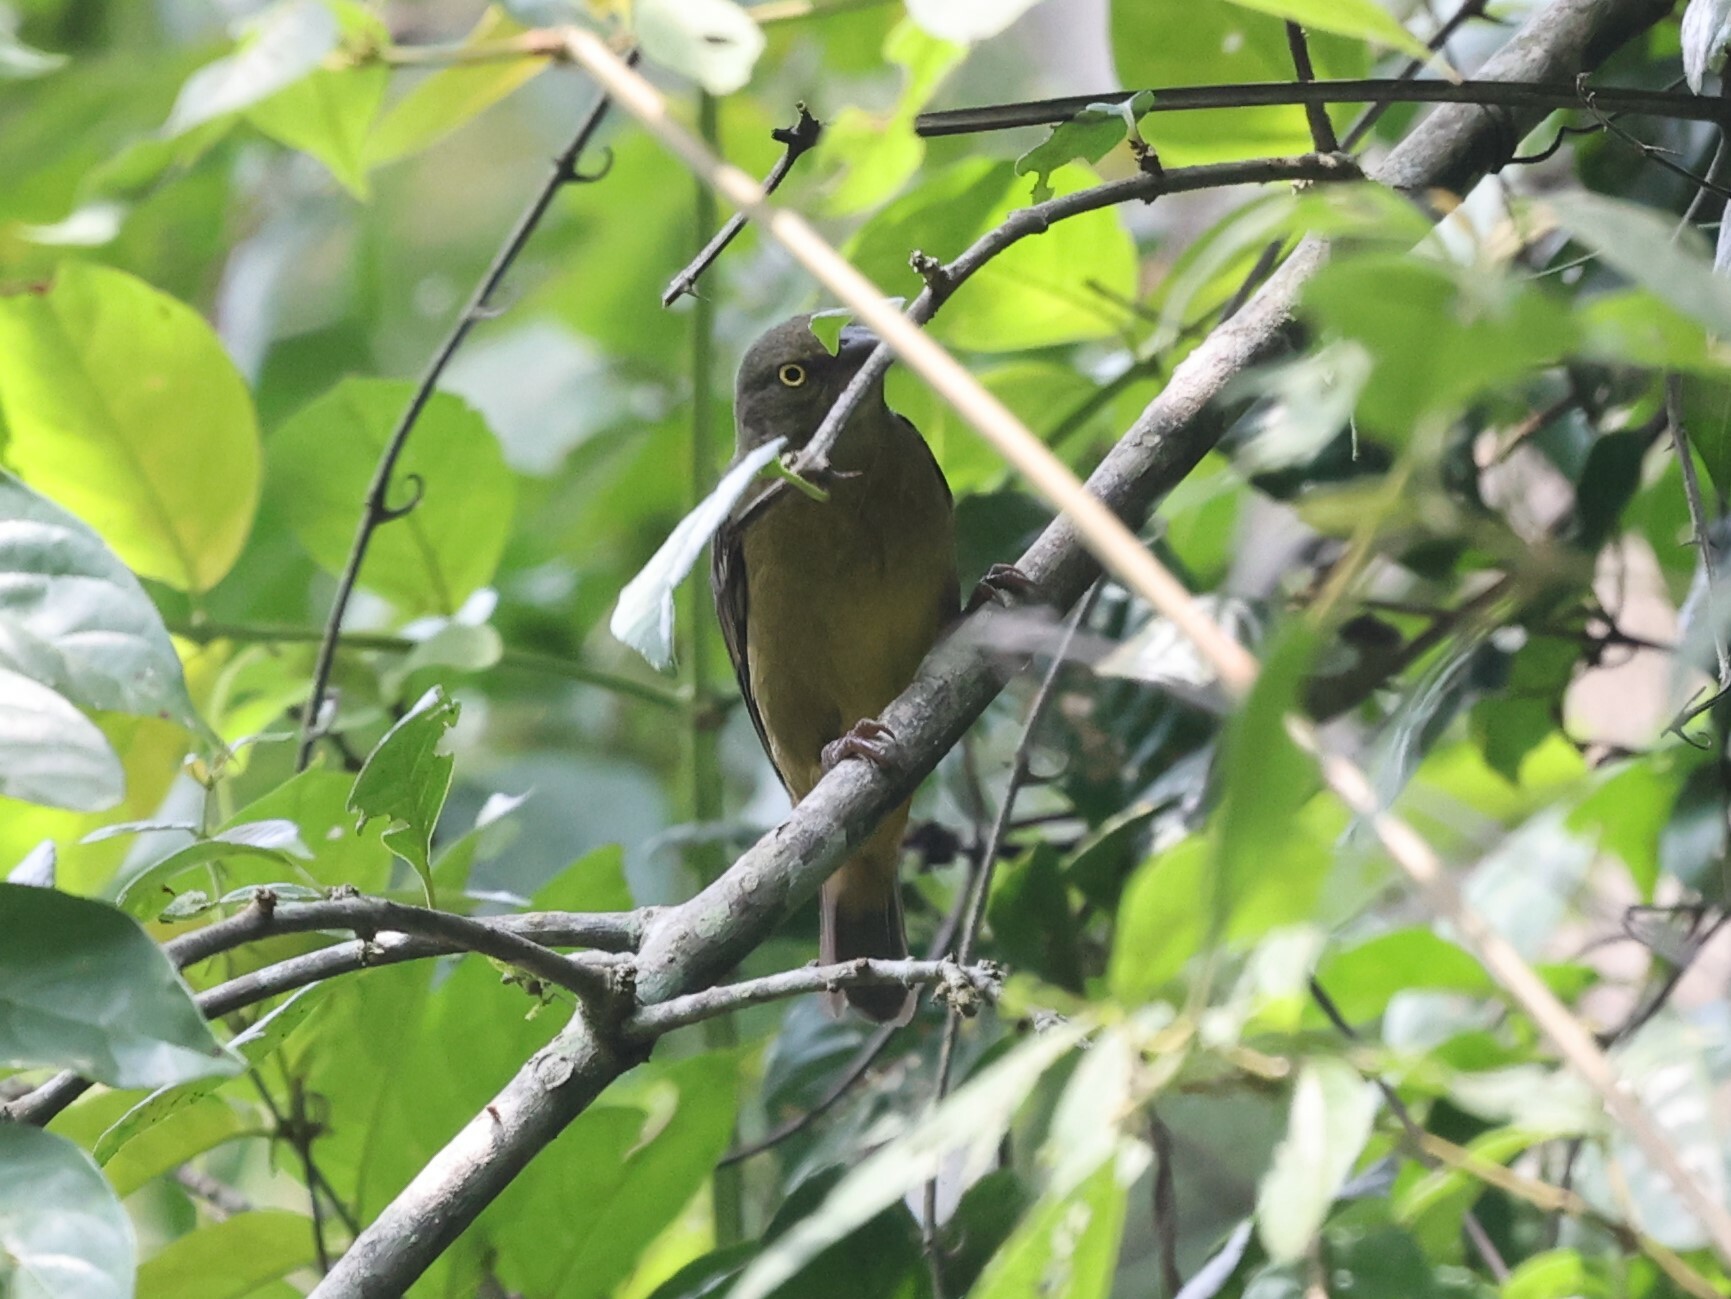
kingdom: Animalia
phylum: Chordata
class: Aves
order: Passeriformes
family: Ploceidae
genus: Ploceus
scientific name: Ploceus nigerrimus
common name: Vieillot's black weaver
